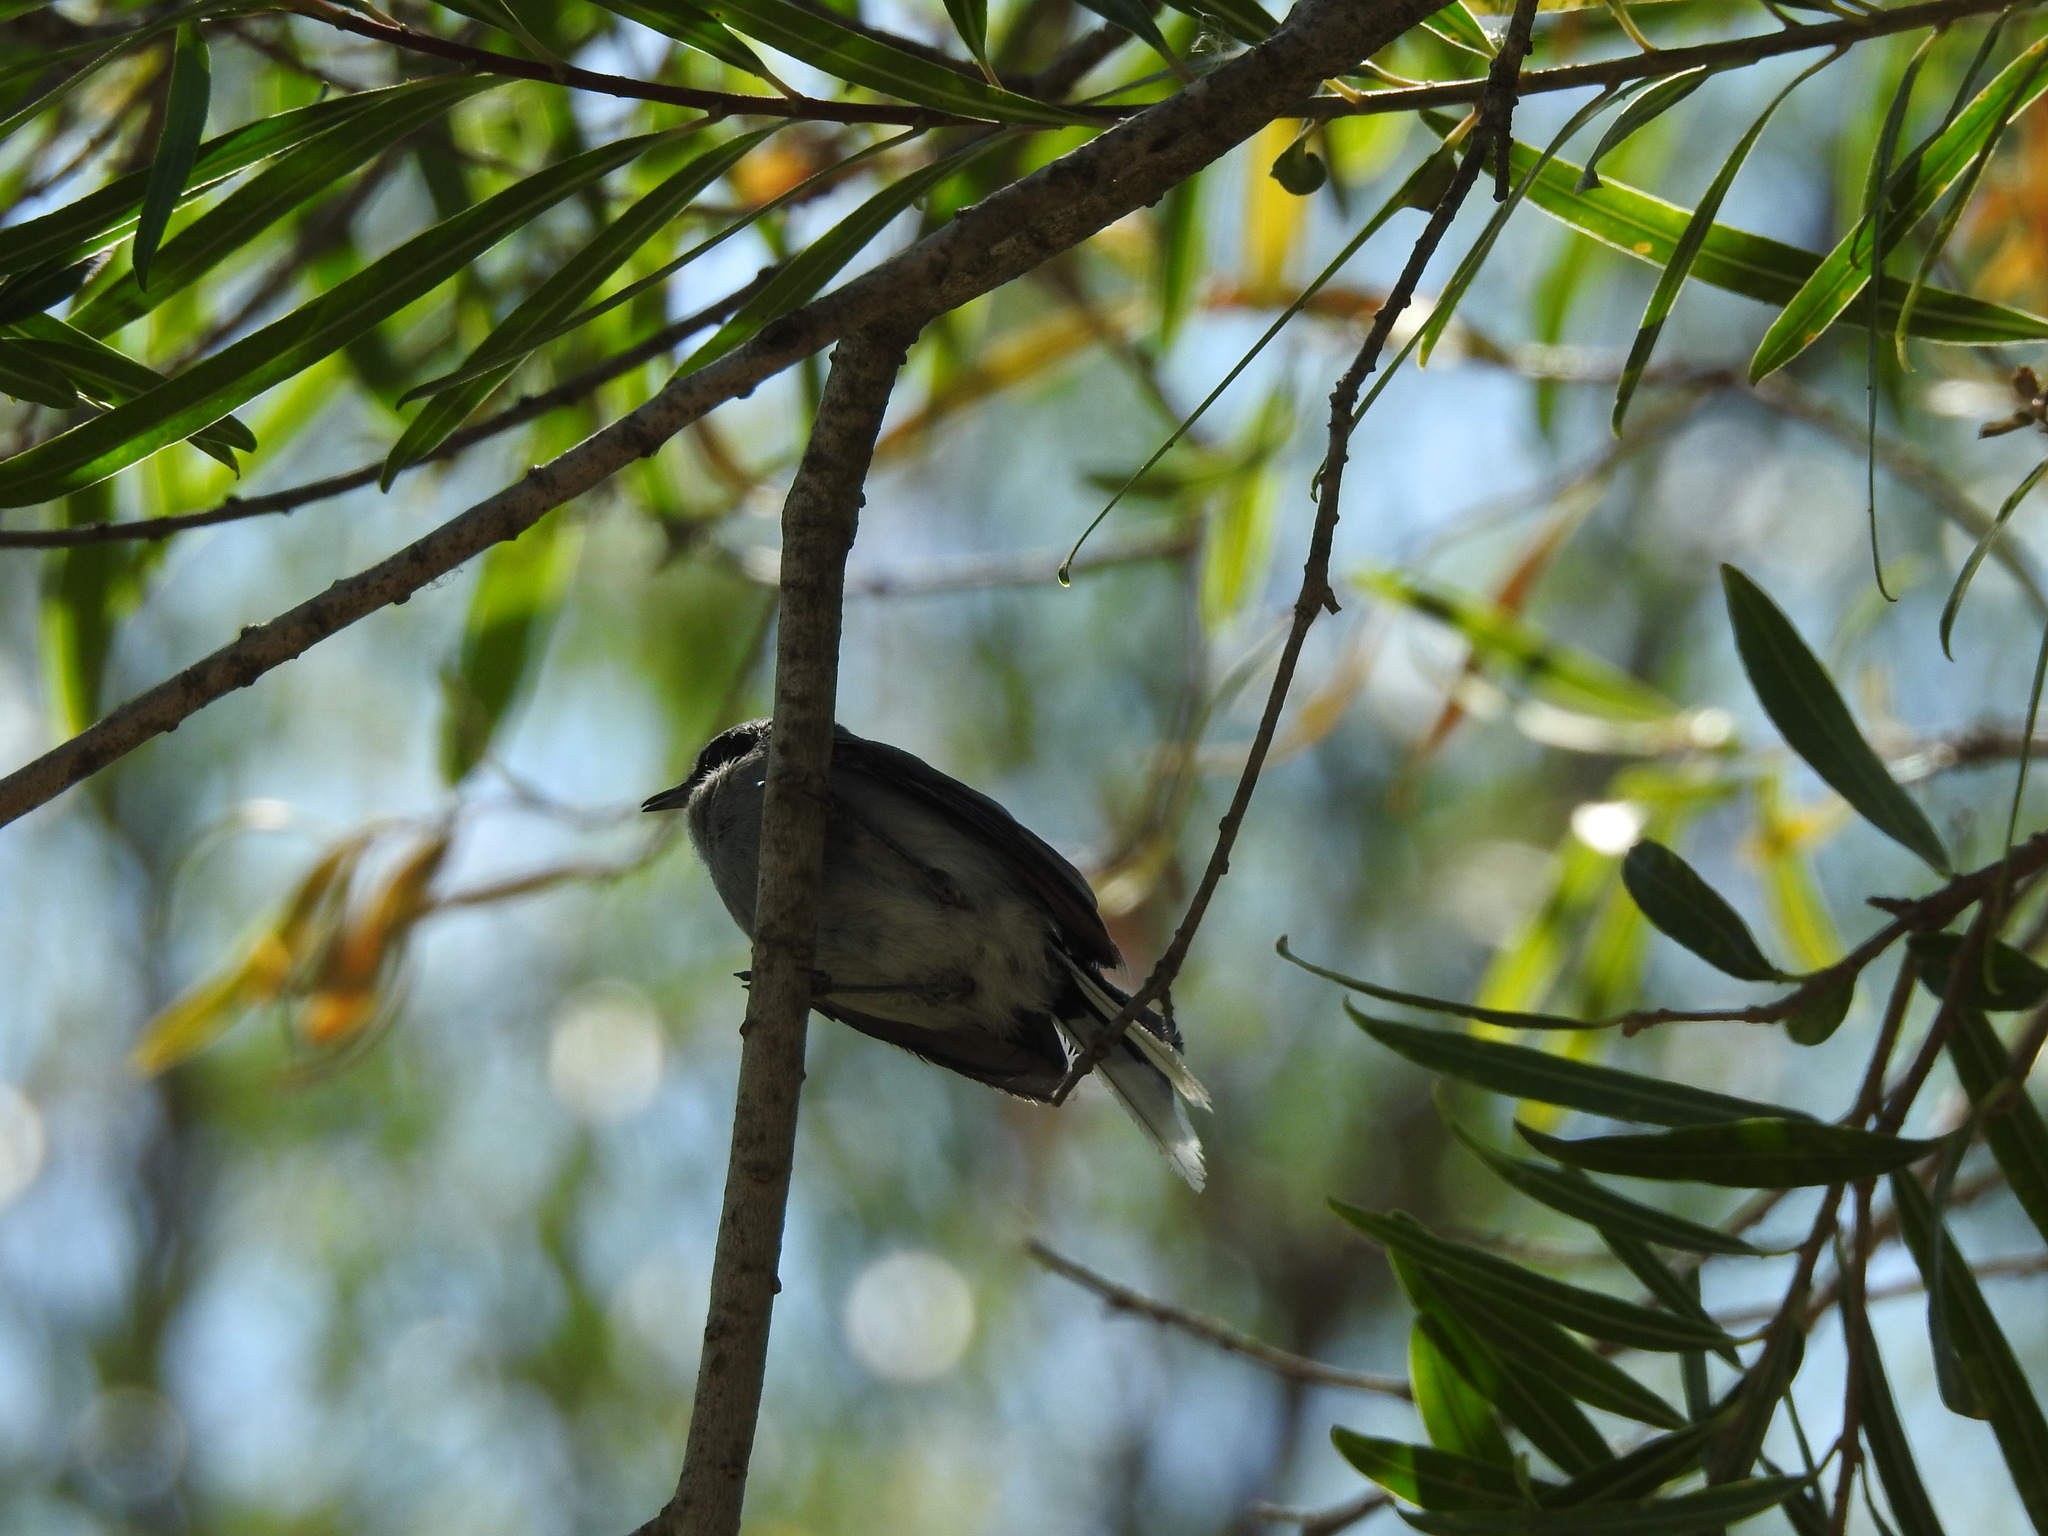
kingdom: Animalia
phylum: Chordata
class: Aves
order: Passeriformes
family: Polioptilidae
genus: Polioptila
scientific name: Polioptila dumicola
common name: Masked gnatcatcher
